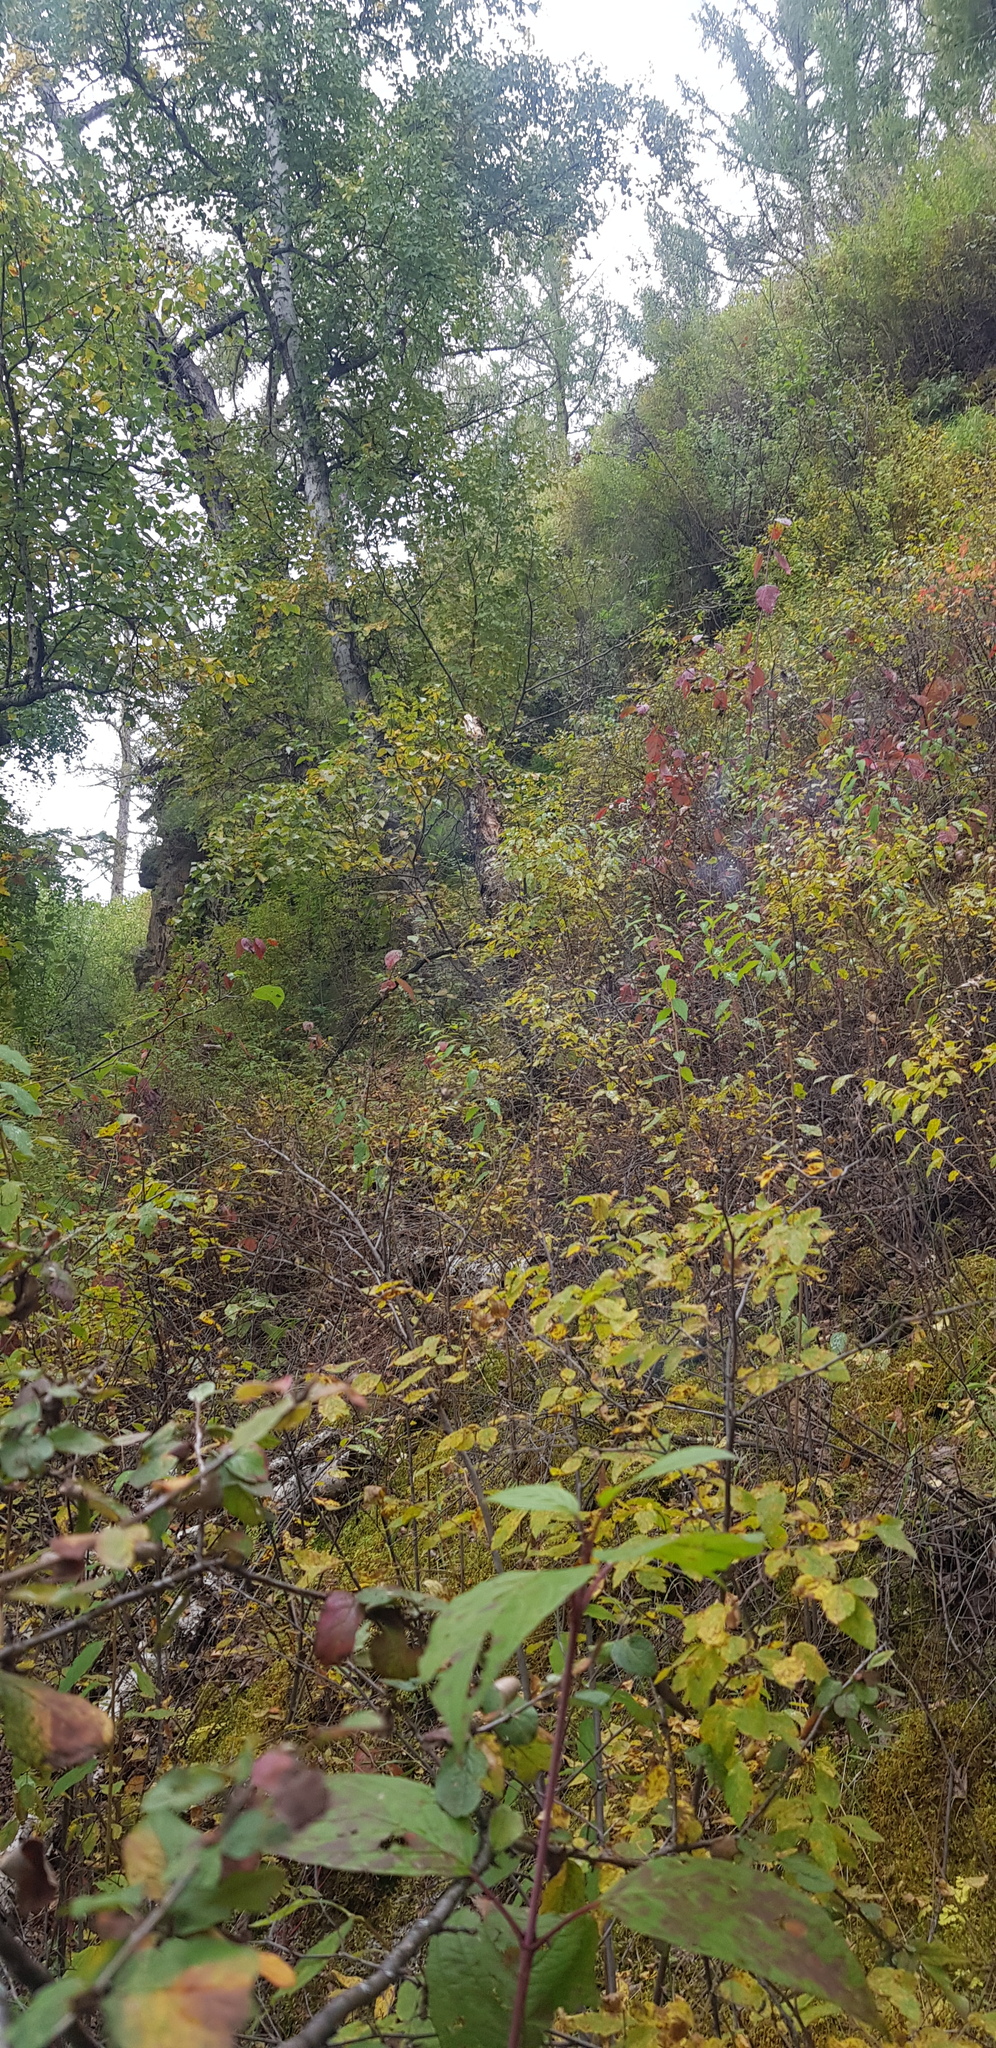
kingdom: Plantae
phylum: Tracheophyta
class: Magnoliopsida
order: Fagales
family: Betulaceae
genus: Betula
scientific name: Betula pendula
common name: Silver birch
